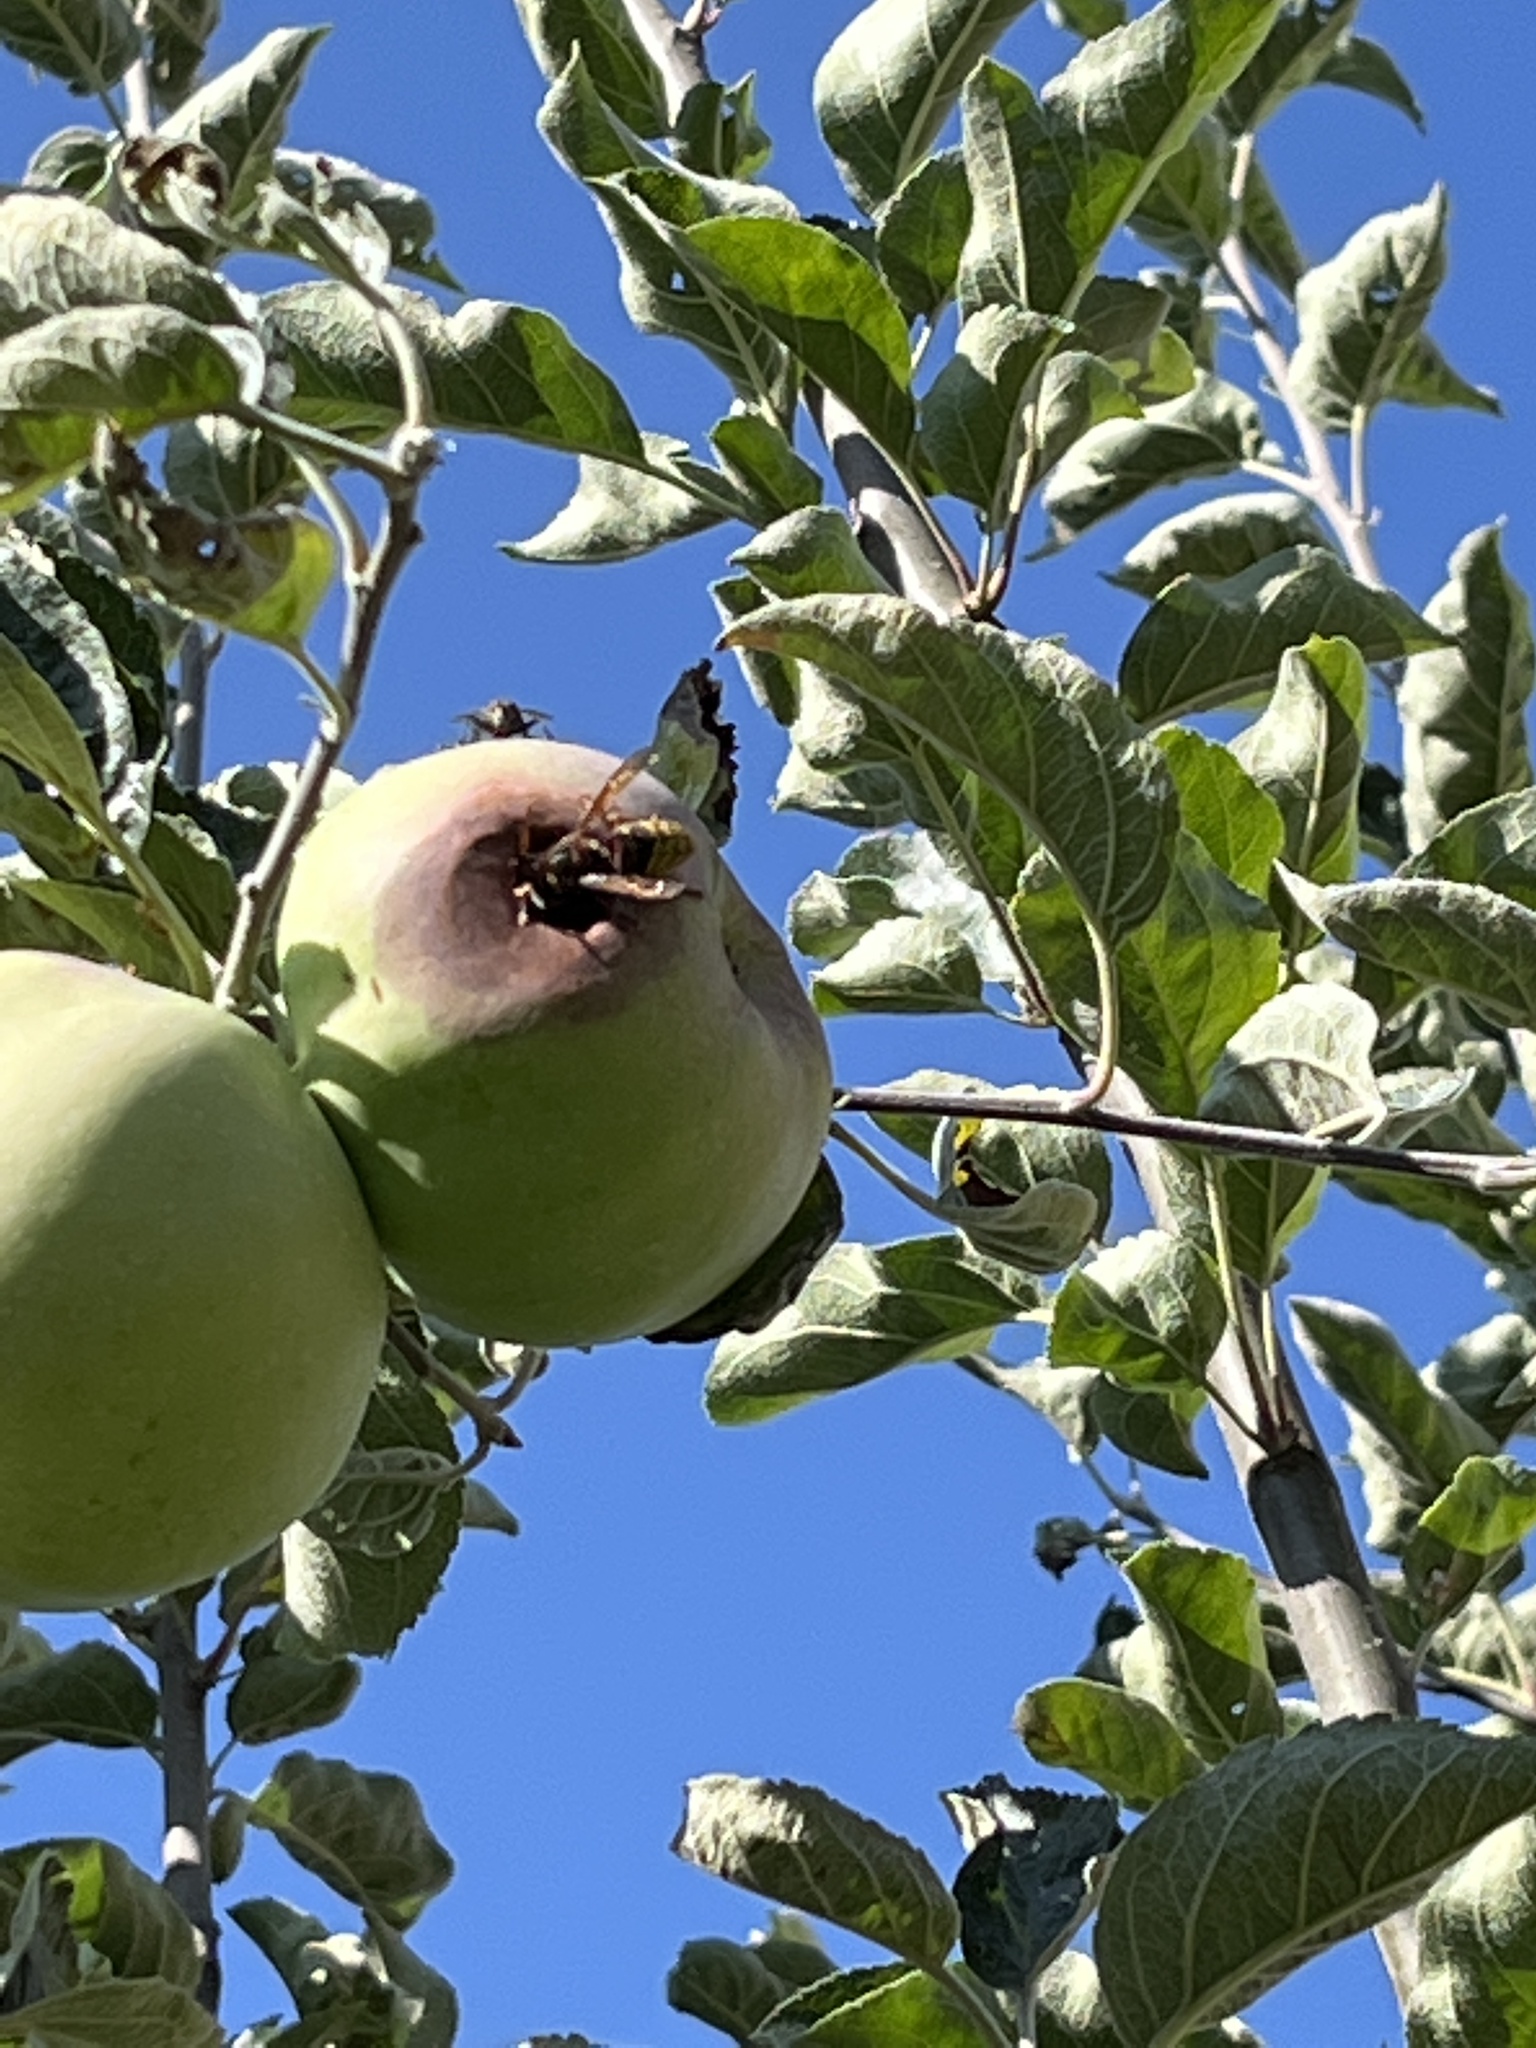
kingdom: Animalia
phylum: Arthropoda
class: Insecta
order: Hymenoptera
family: Vespidae
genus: Vespa
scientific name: Vespa crabro
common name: Hornet
